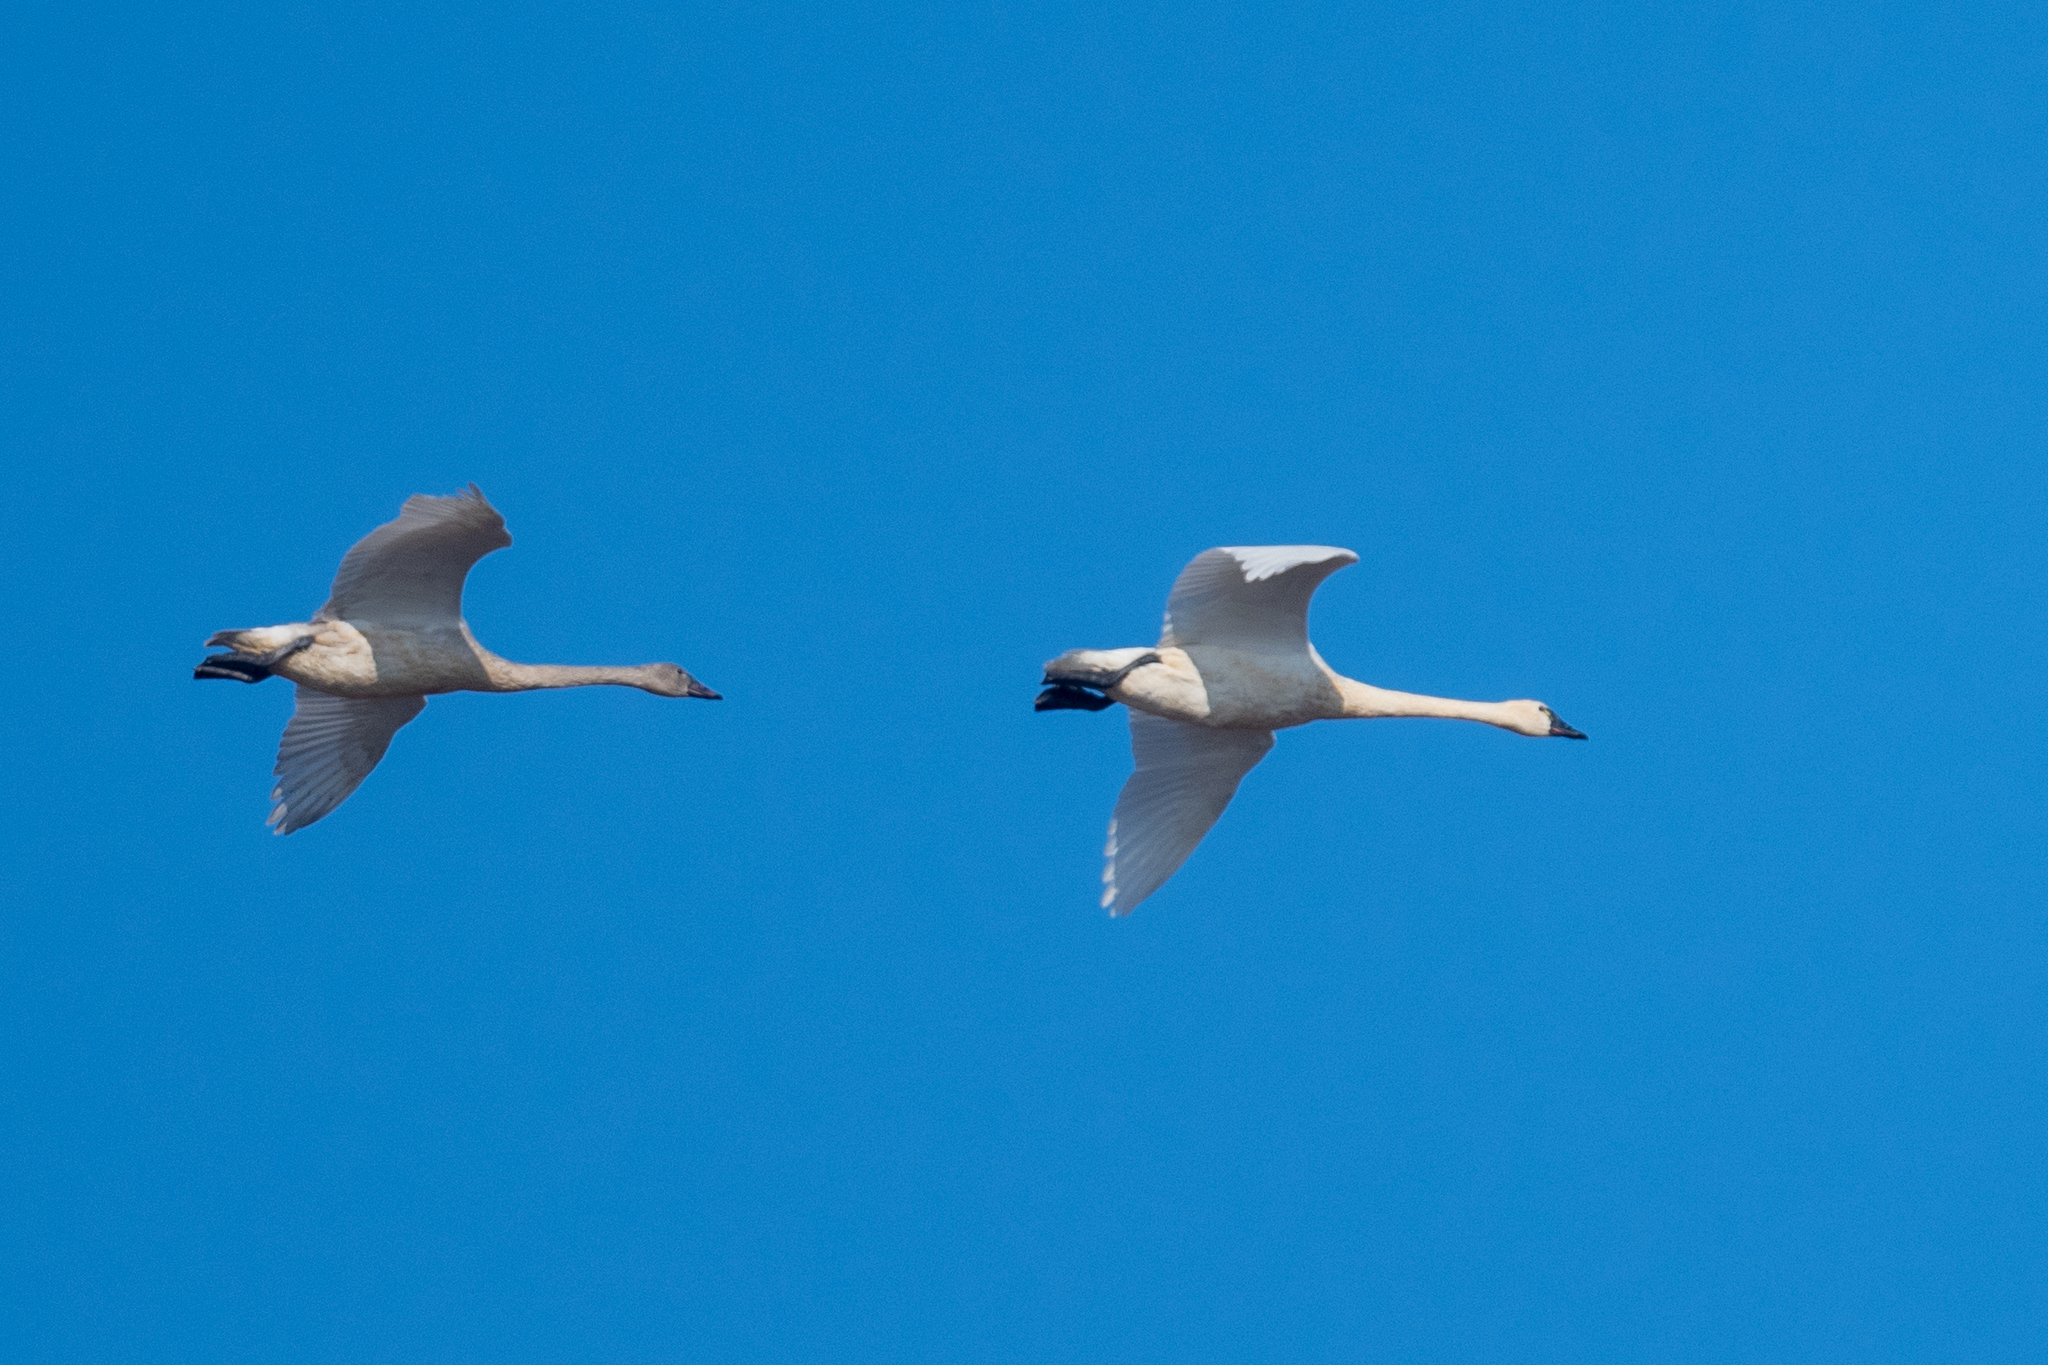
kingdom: Animalia
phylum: Chordata
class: Aves
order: Anseriformes
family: Anatidae
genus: Cygnus
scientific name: Cygnus columbianus
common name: Tundra swan
